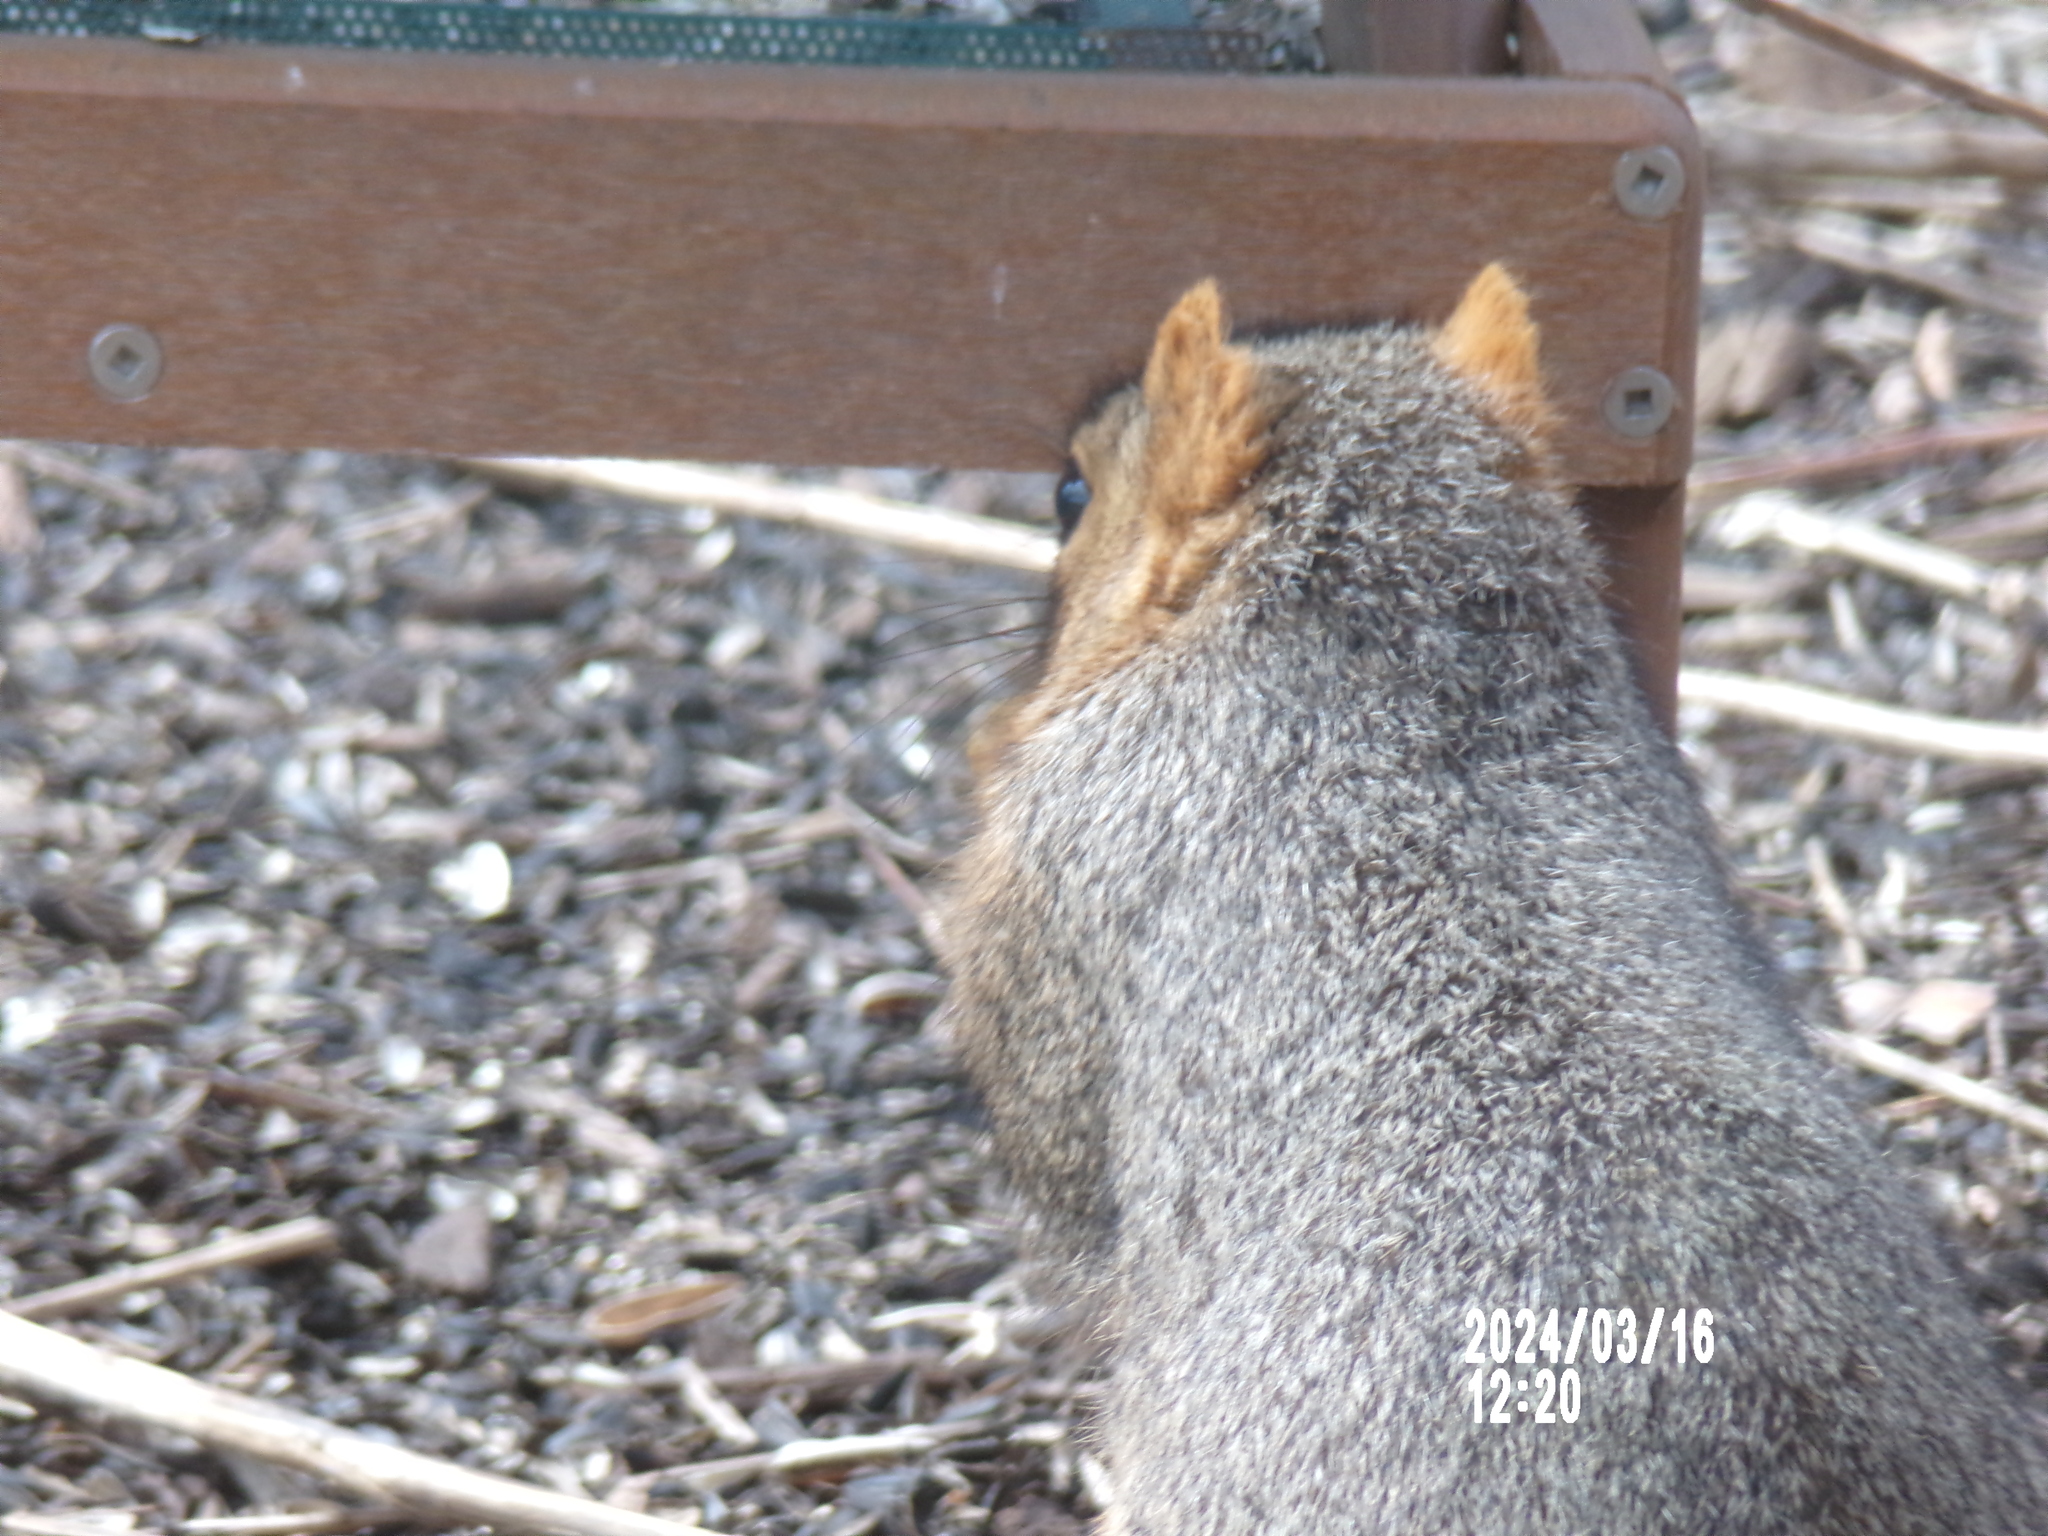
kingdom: Animalia
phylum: Chordata
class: Mammalia
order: Rodentia
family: Sciuridae
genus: Sciurus
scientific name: Sciurus niger
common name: Fox squirrel
